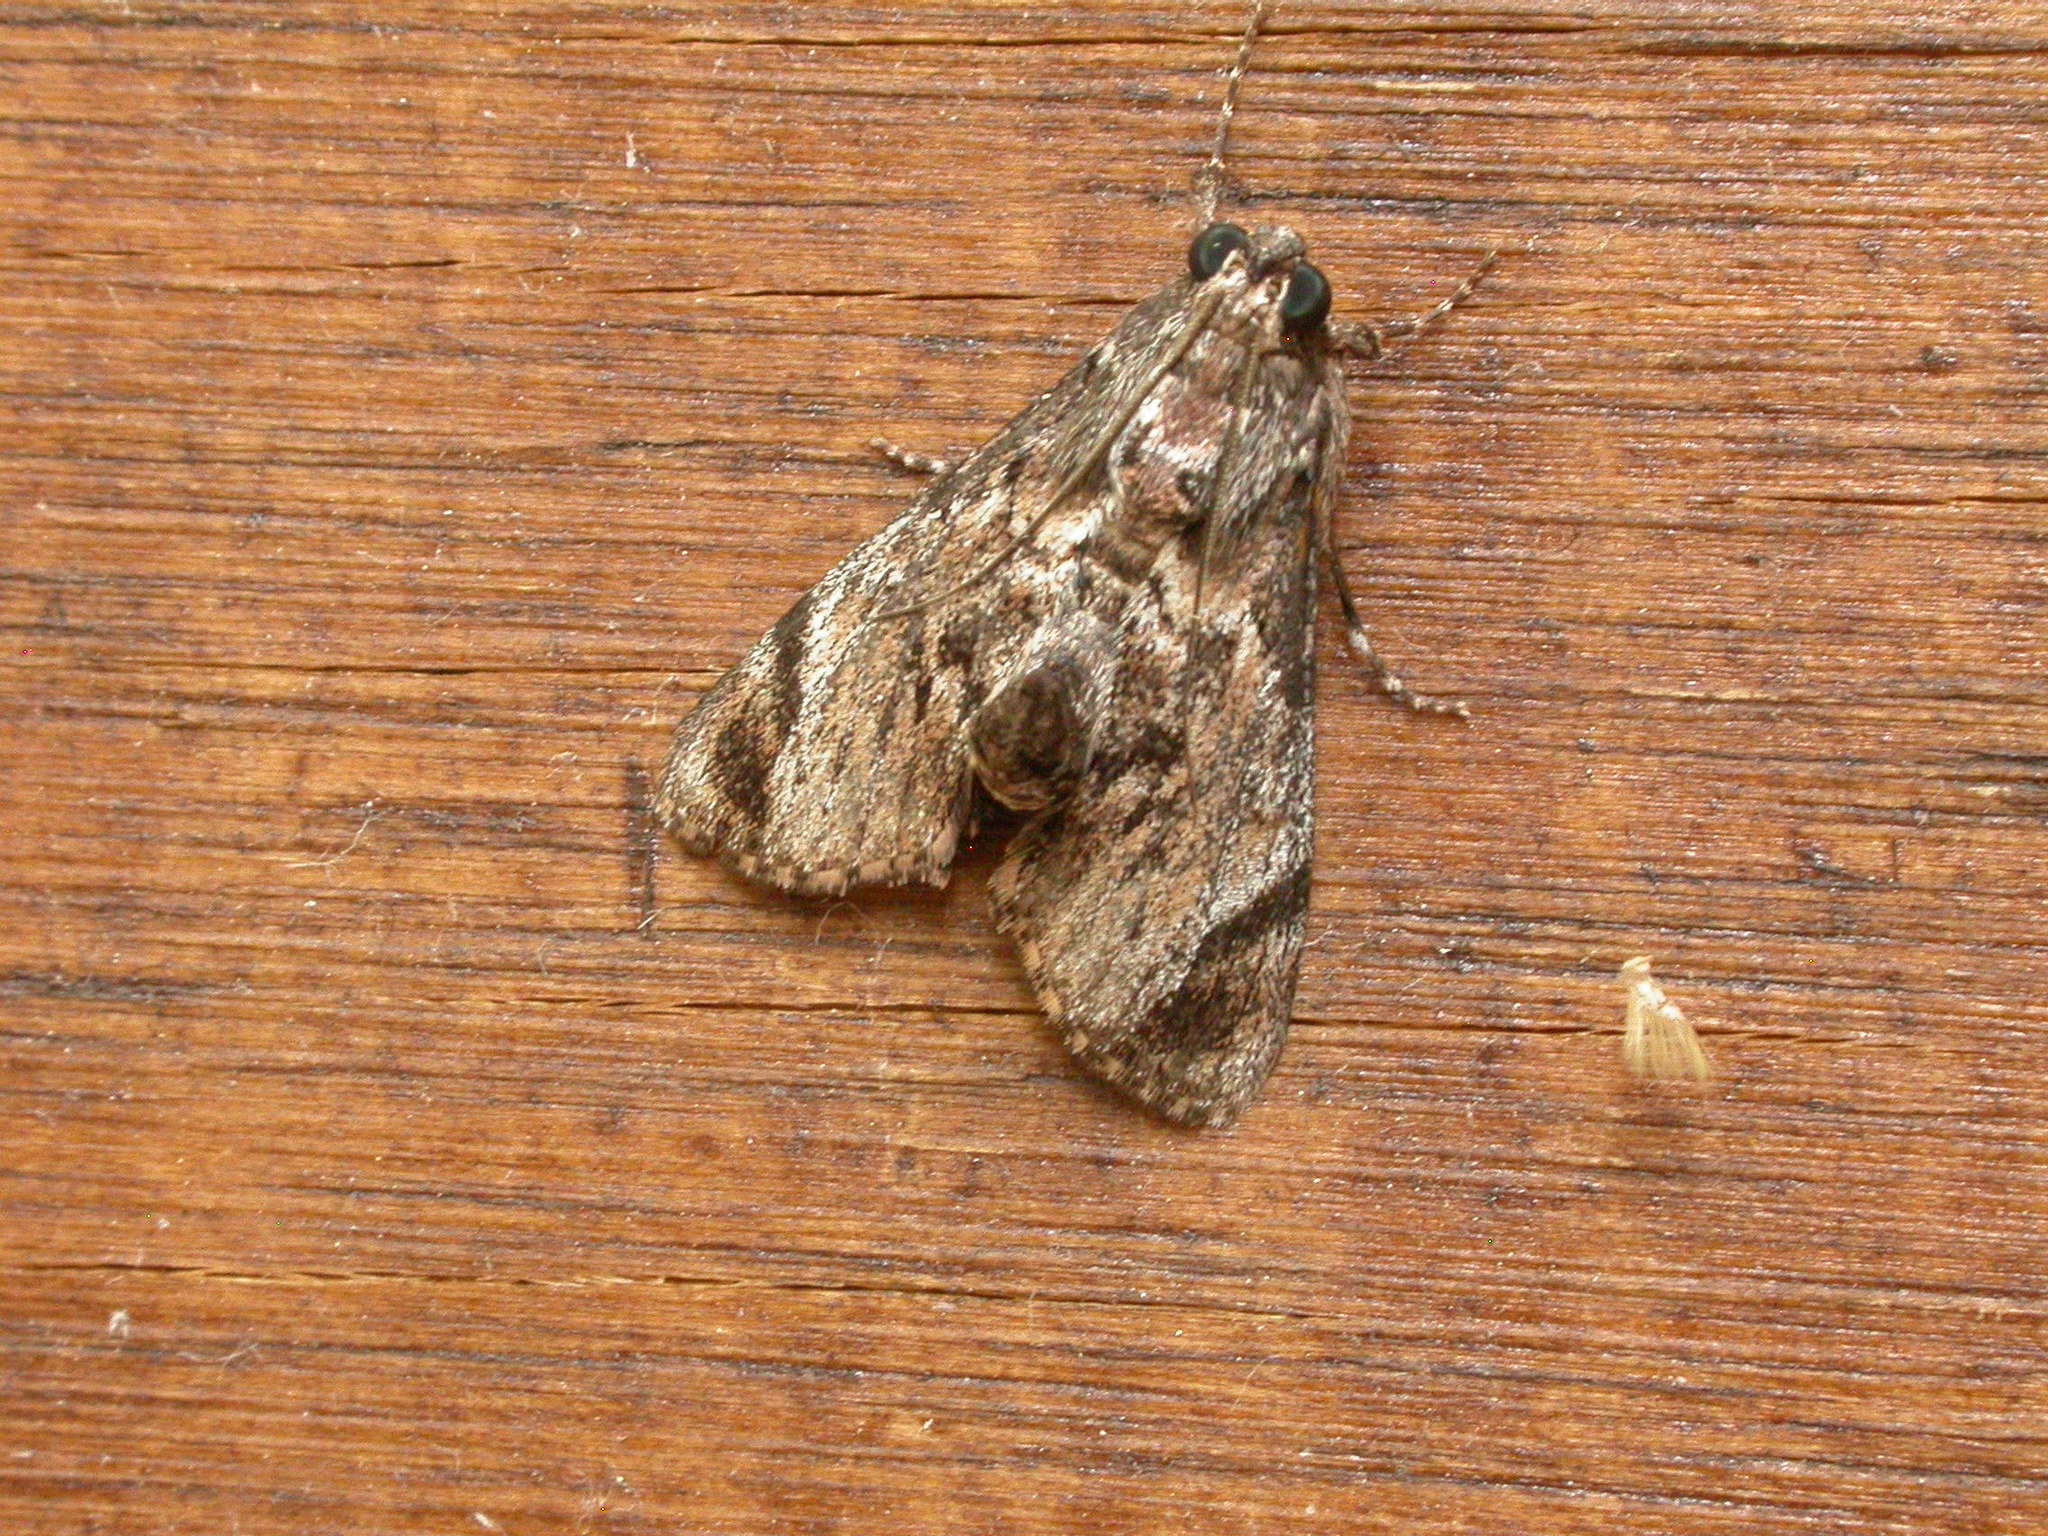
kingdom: Animalia
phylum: Arthropoda
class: Insecta
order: Lepidoptera
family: Pyralidae
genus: Salma
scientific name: Salma pyrastis
